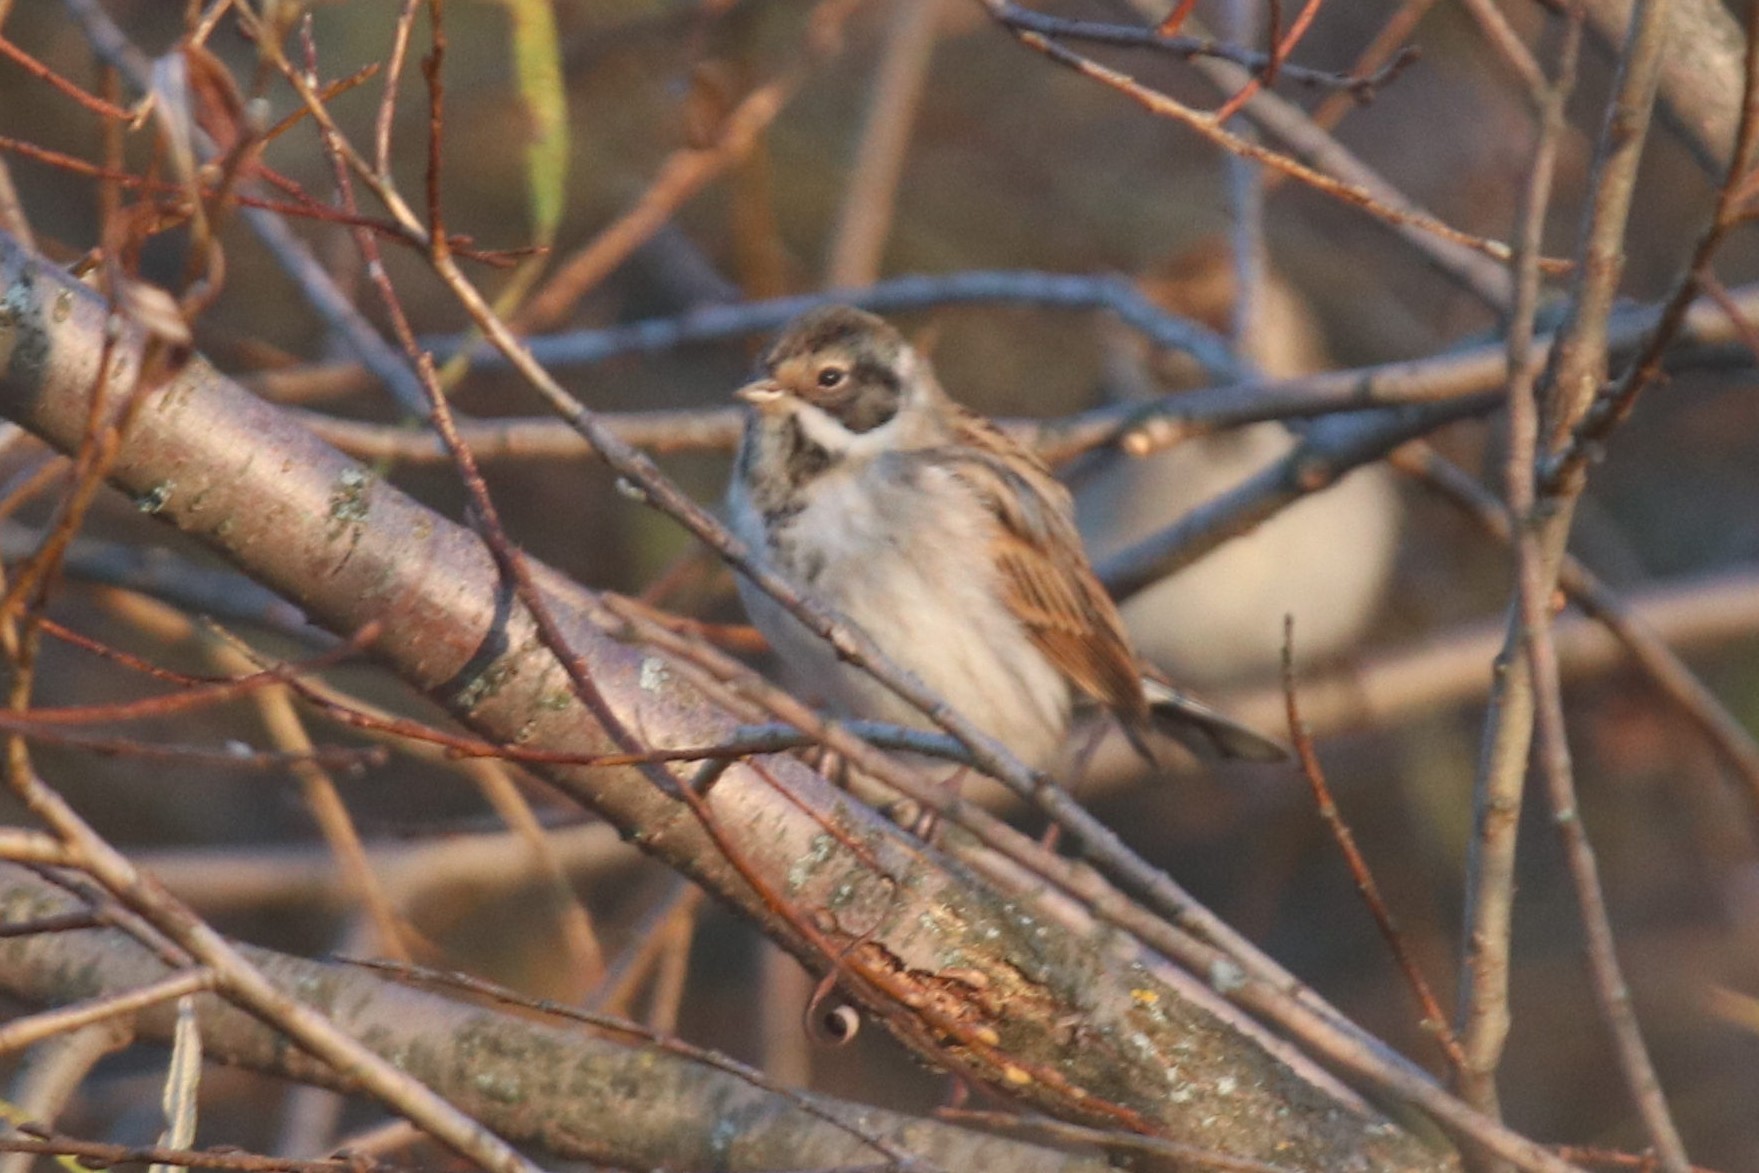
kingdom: Animalia
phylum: Chordata
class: Aves
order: Passeriformes
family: Emberizidae
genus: Emberiza
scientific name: Emberiza schoeniclus
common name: Reed bunting
